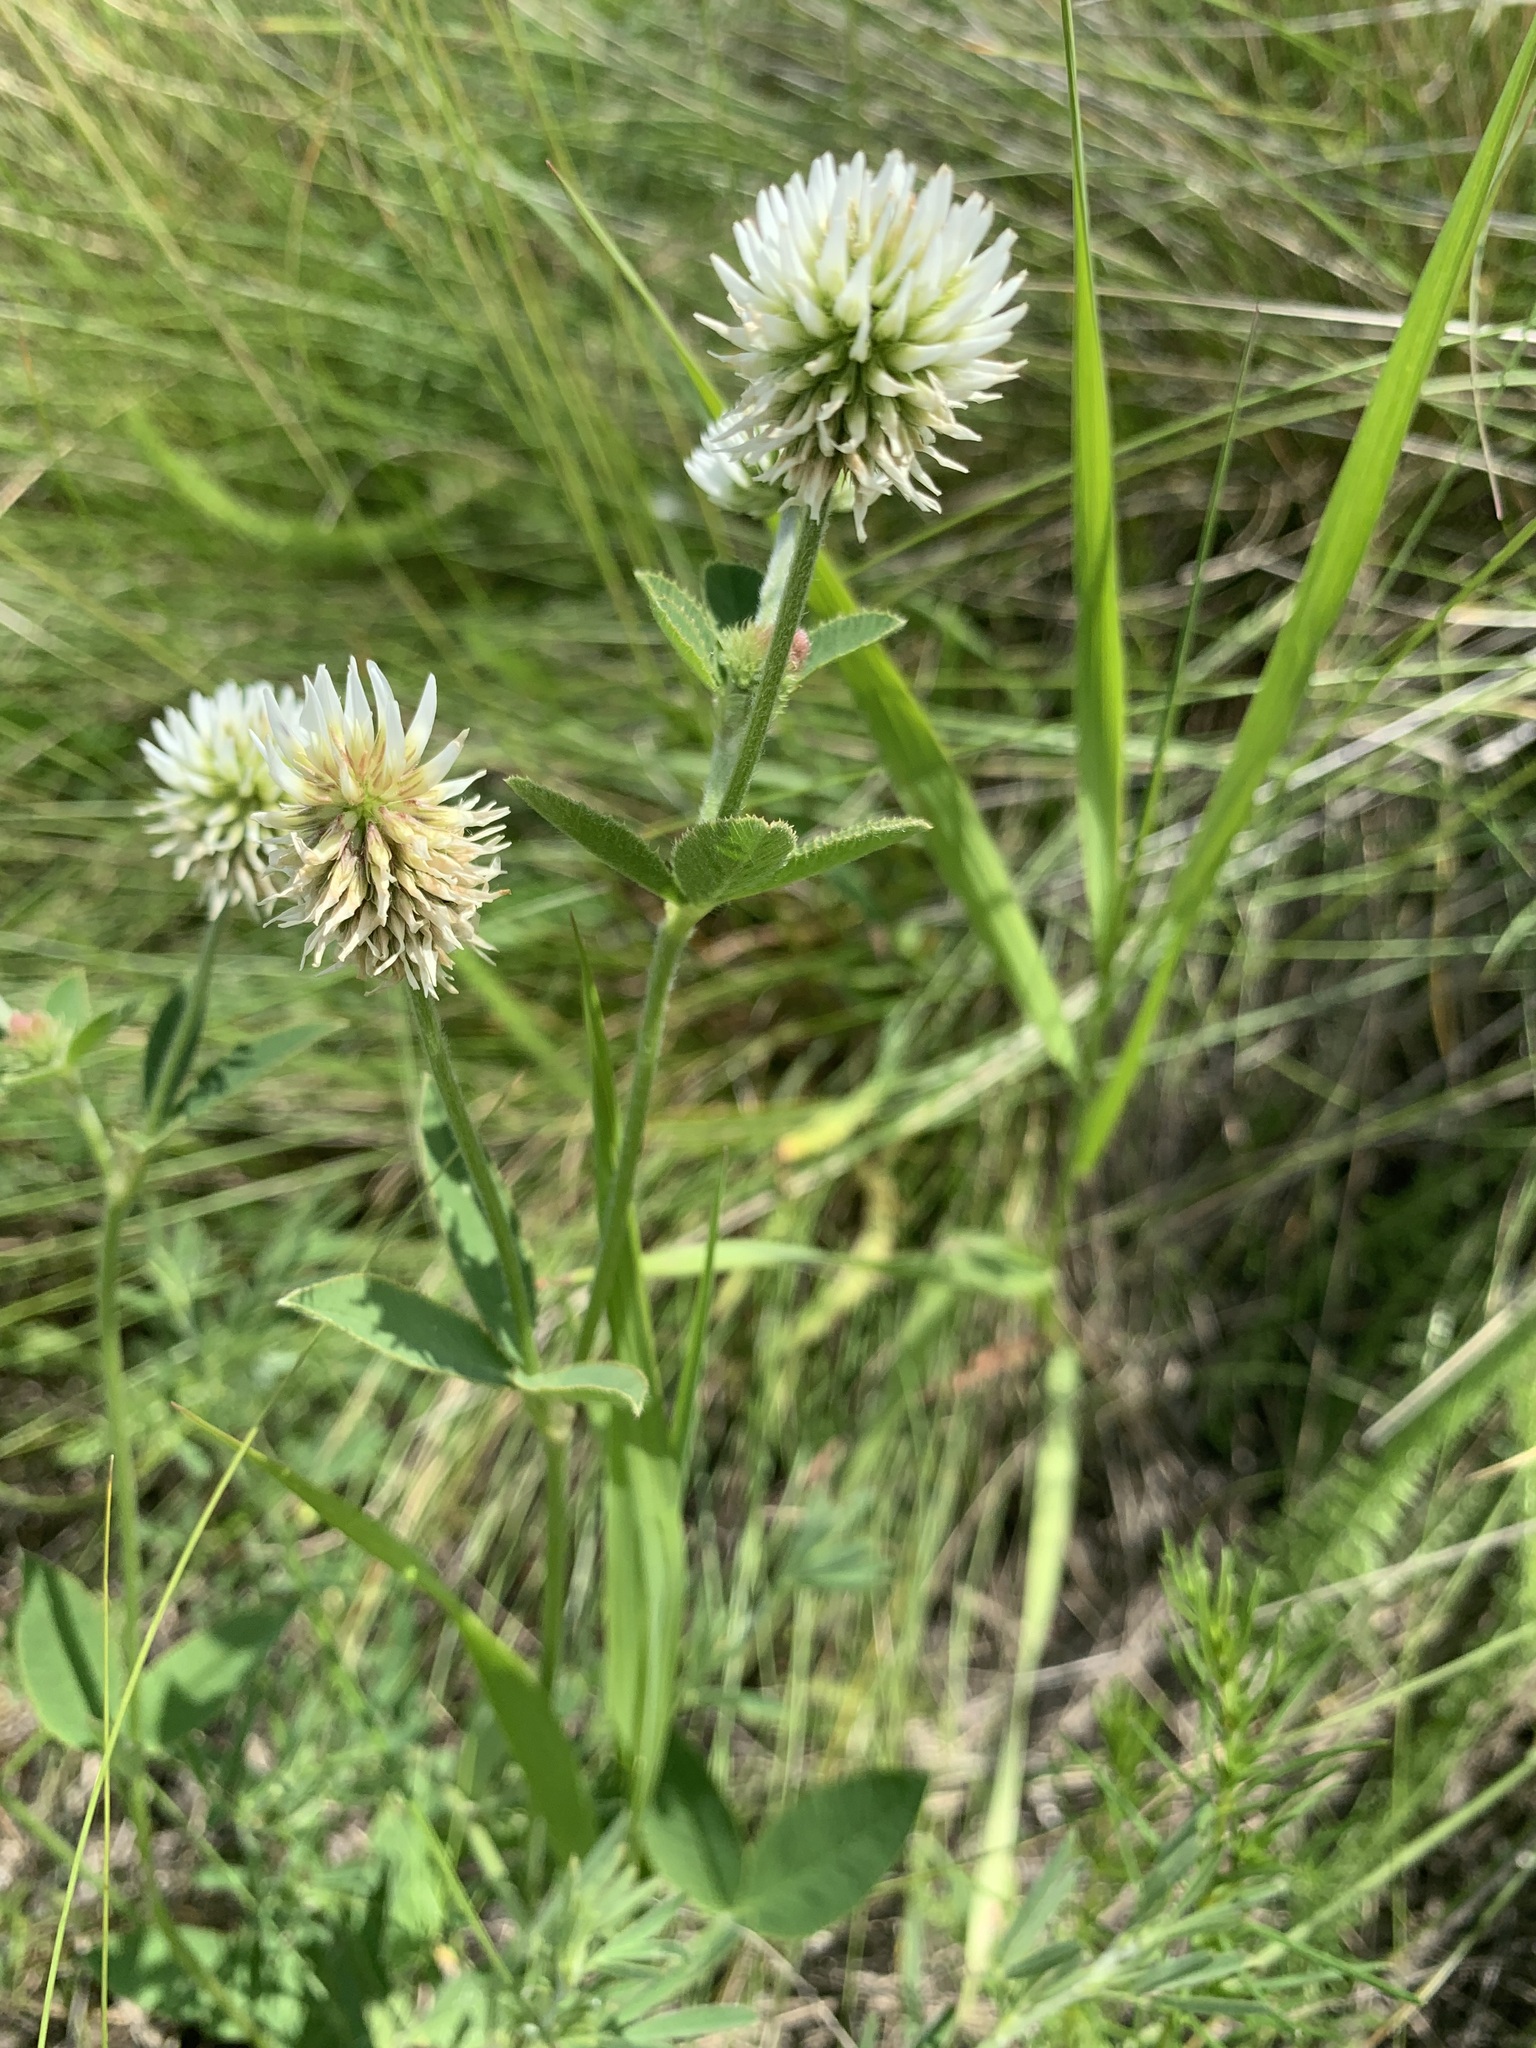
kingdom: Plantae
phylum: Tracheophyta
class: Magnoliopsida
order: Fabales
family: Fabaceae
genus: Trifolium
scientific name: Trifolium montanum
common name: Mountain clover
